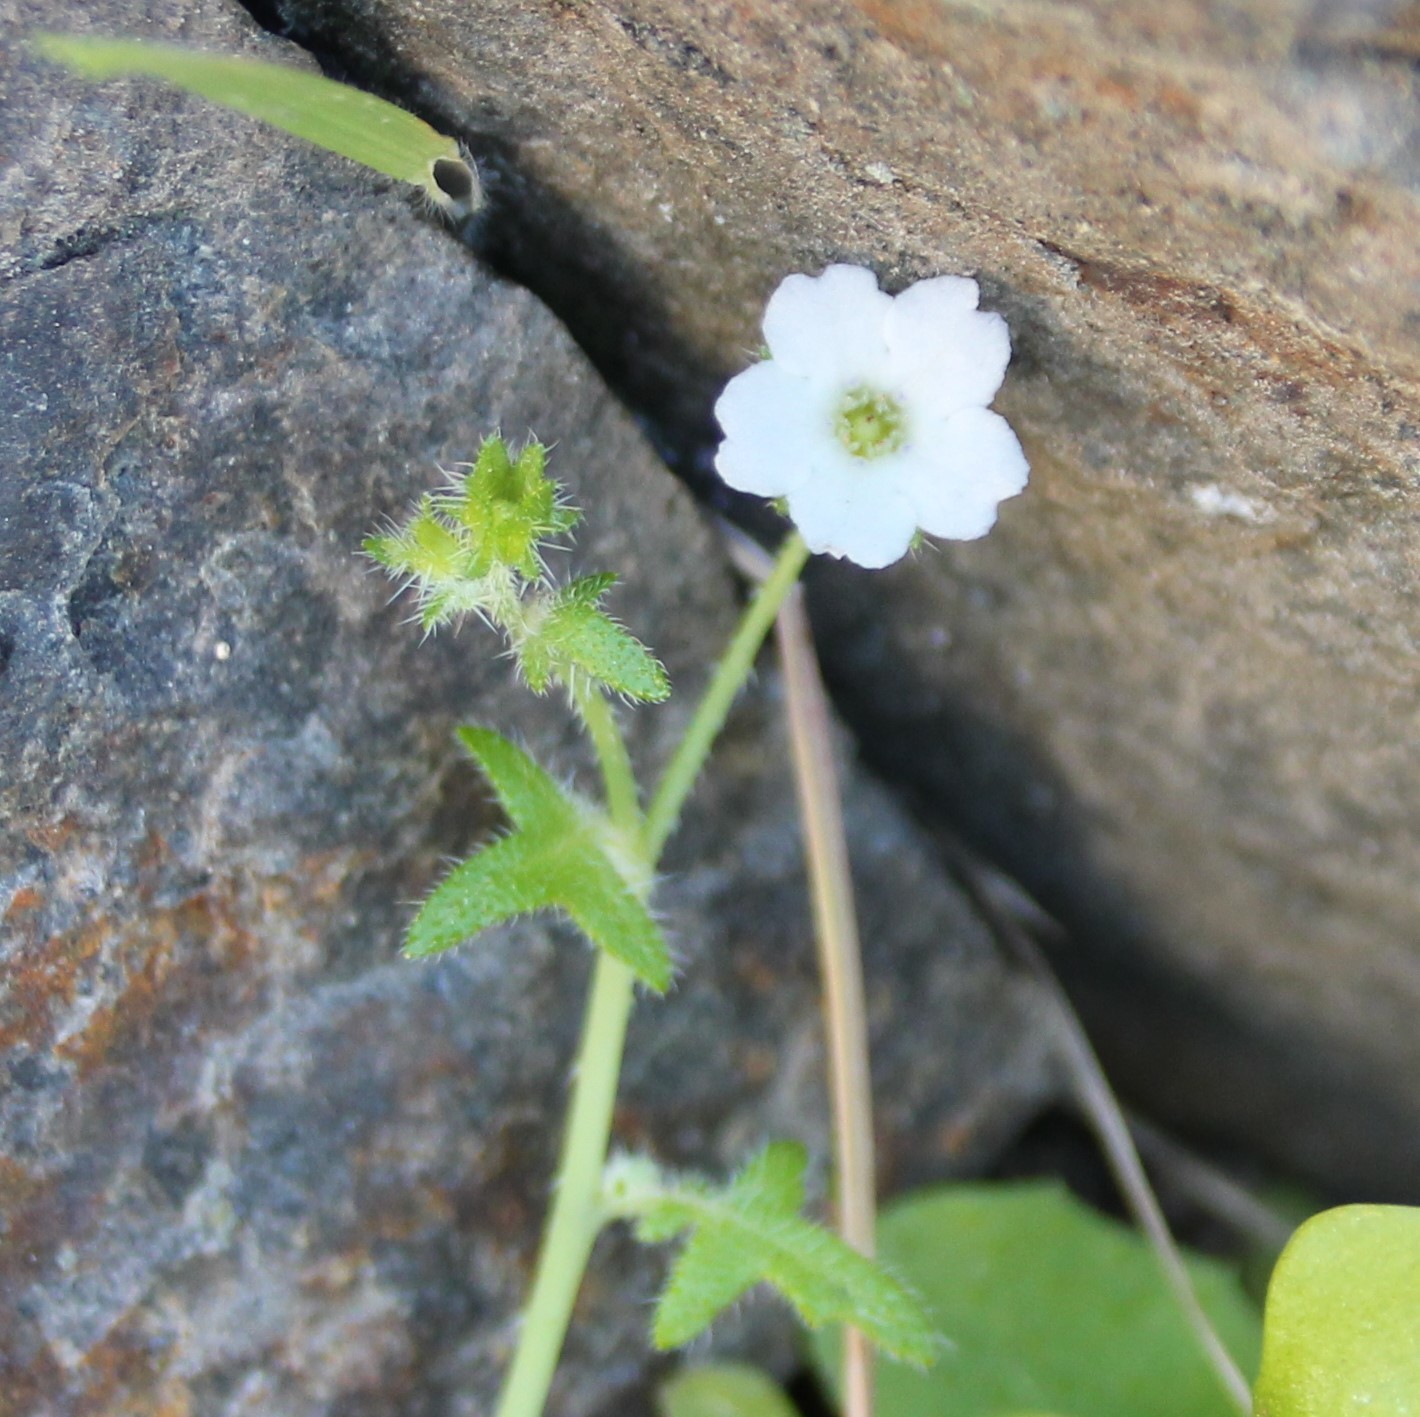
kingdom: Plantae
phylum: Tracheophyta
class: Magnoliopsida
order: Boraginales
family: Hydrophyllaceae
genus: Pholistoma
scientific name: Pholistoma racemosum
